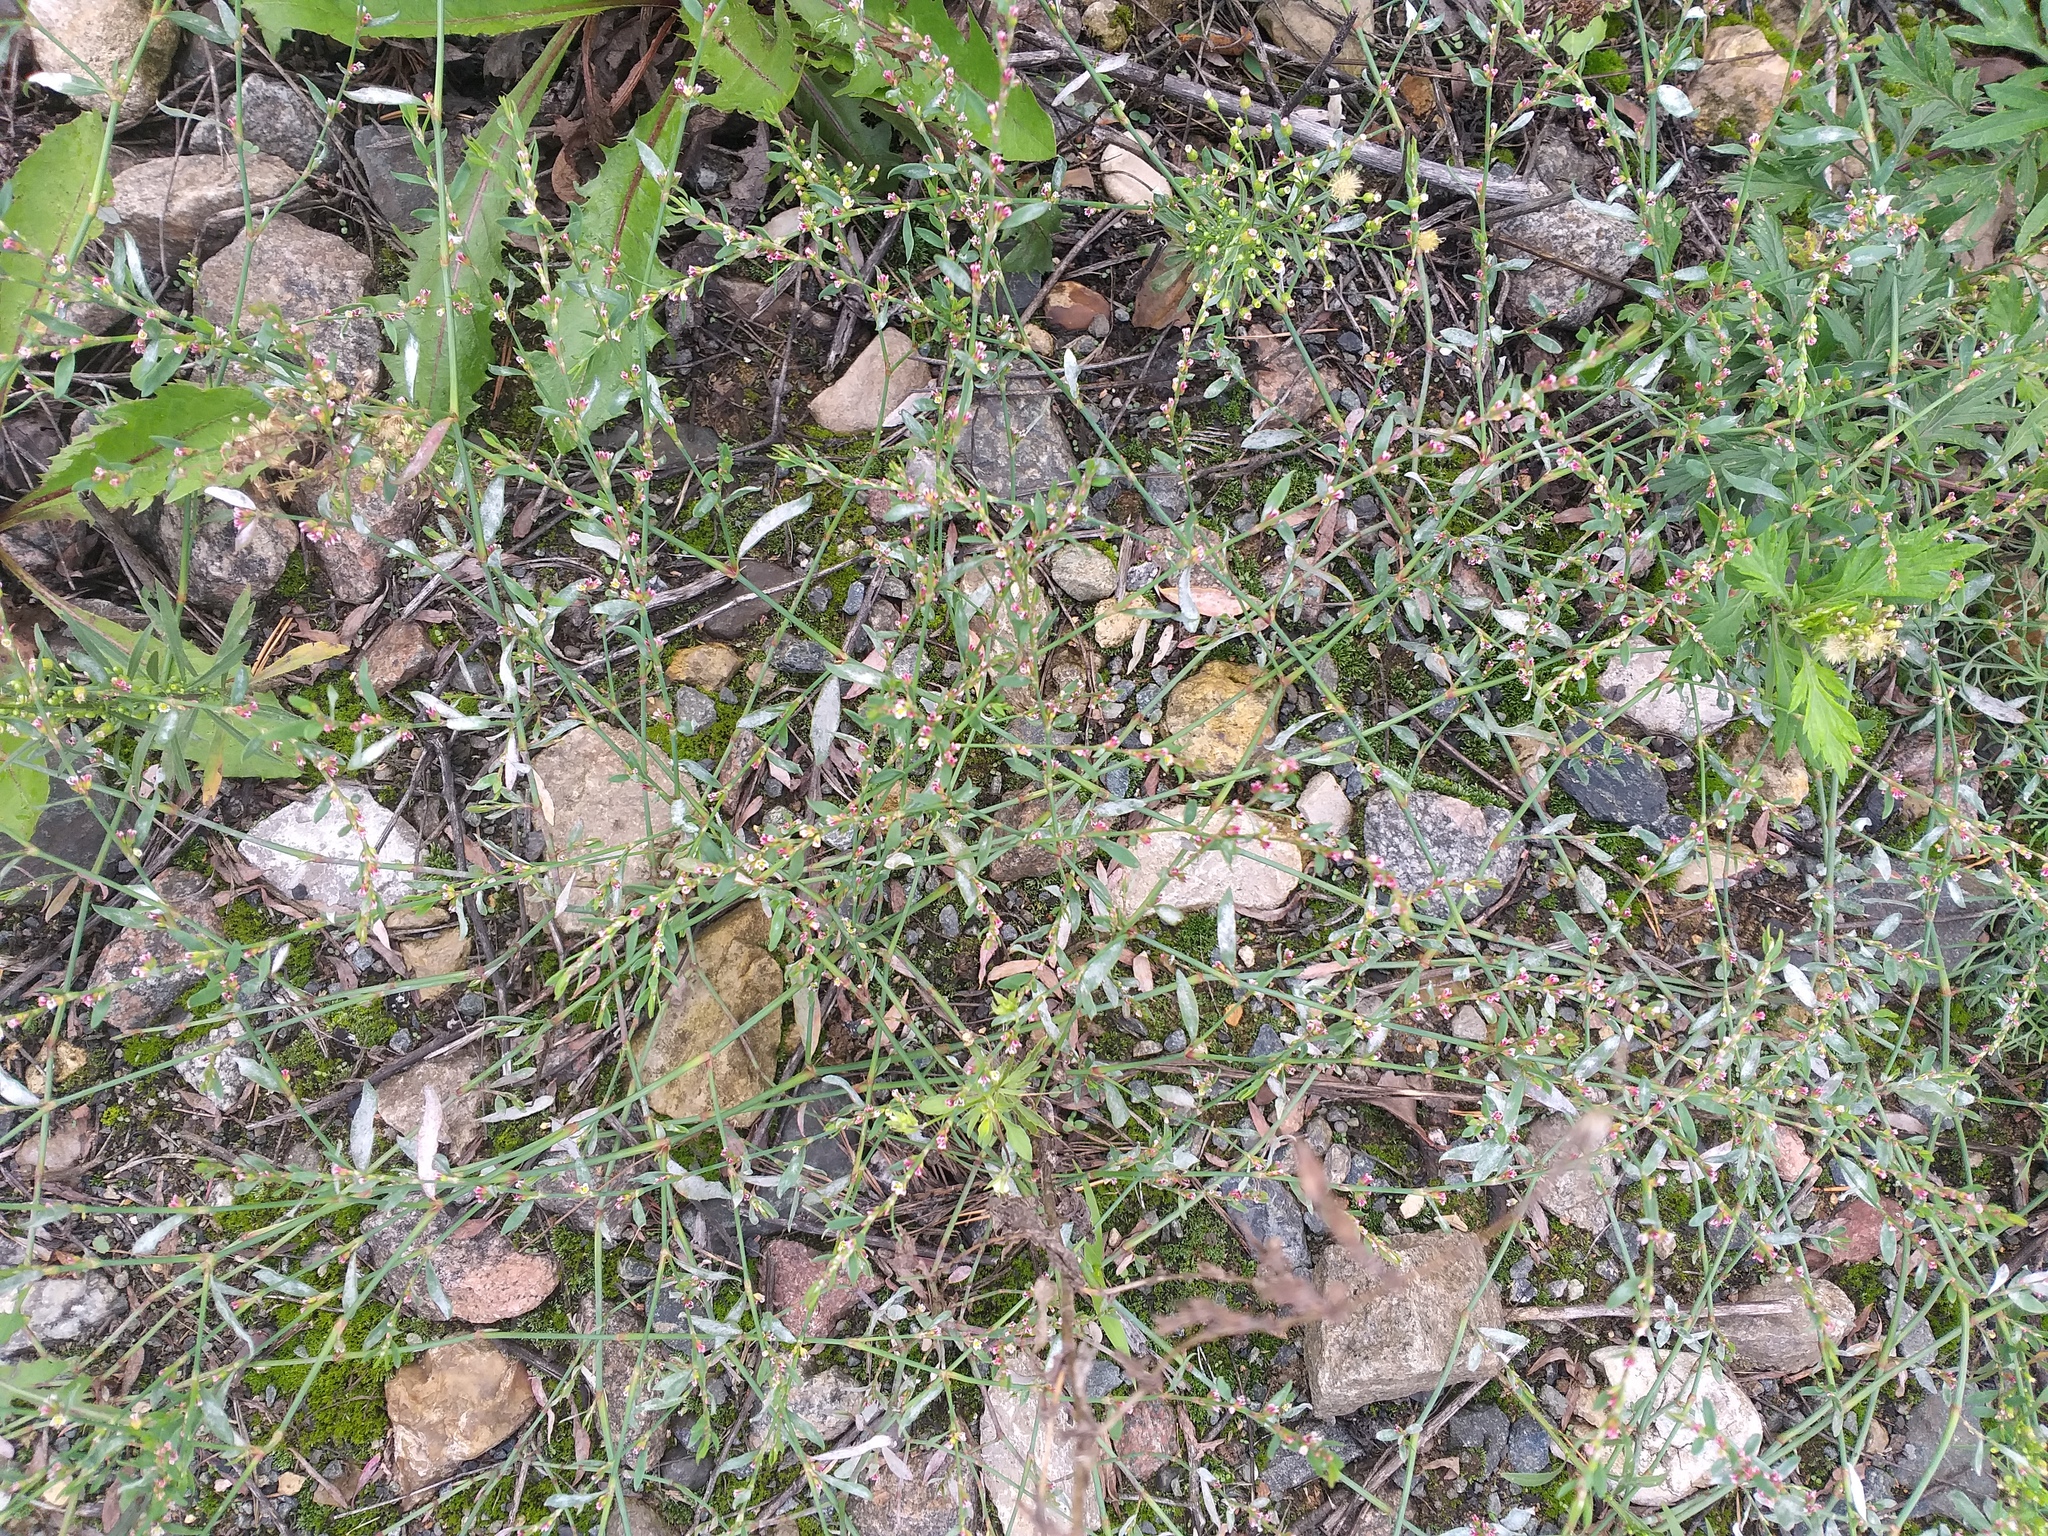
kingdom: Plantae
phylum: Tracheophyta
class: Magnoliopsida
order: Caryophyllales
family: Polygonaceae
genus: Polygonum
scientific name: Polygonum
